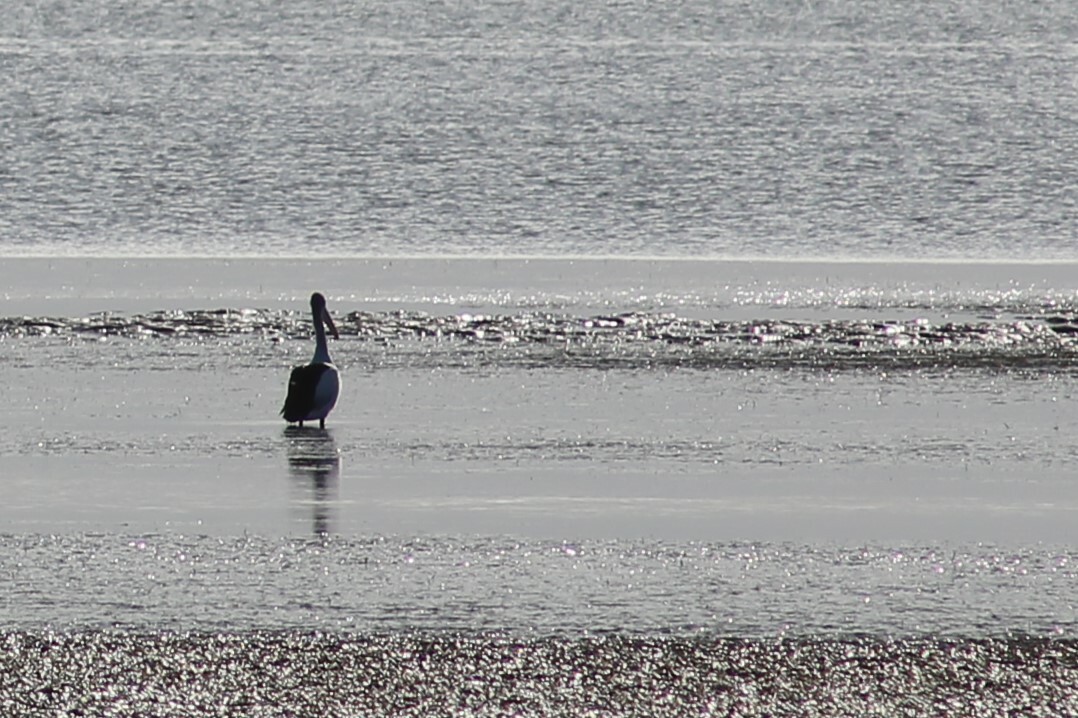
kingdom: Animalia
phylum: Chordata
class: Aves
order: Pelecaniformes
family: Pelecanidae
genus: Pelecanus
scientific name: Pelecanus conspicillatus
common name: Australian pelican
